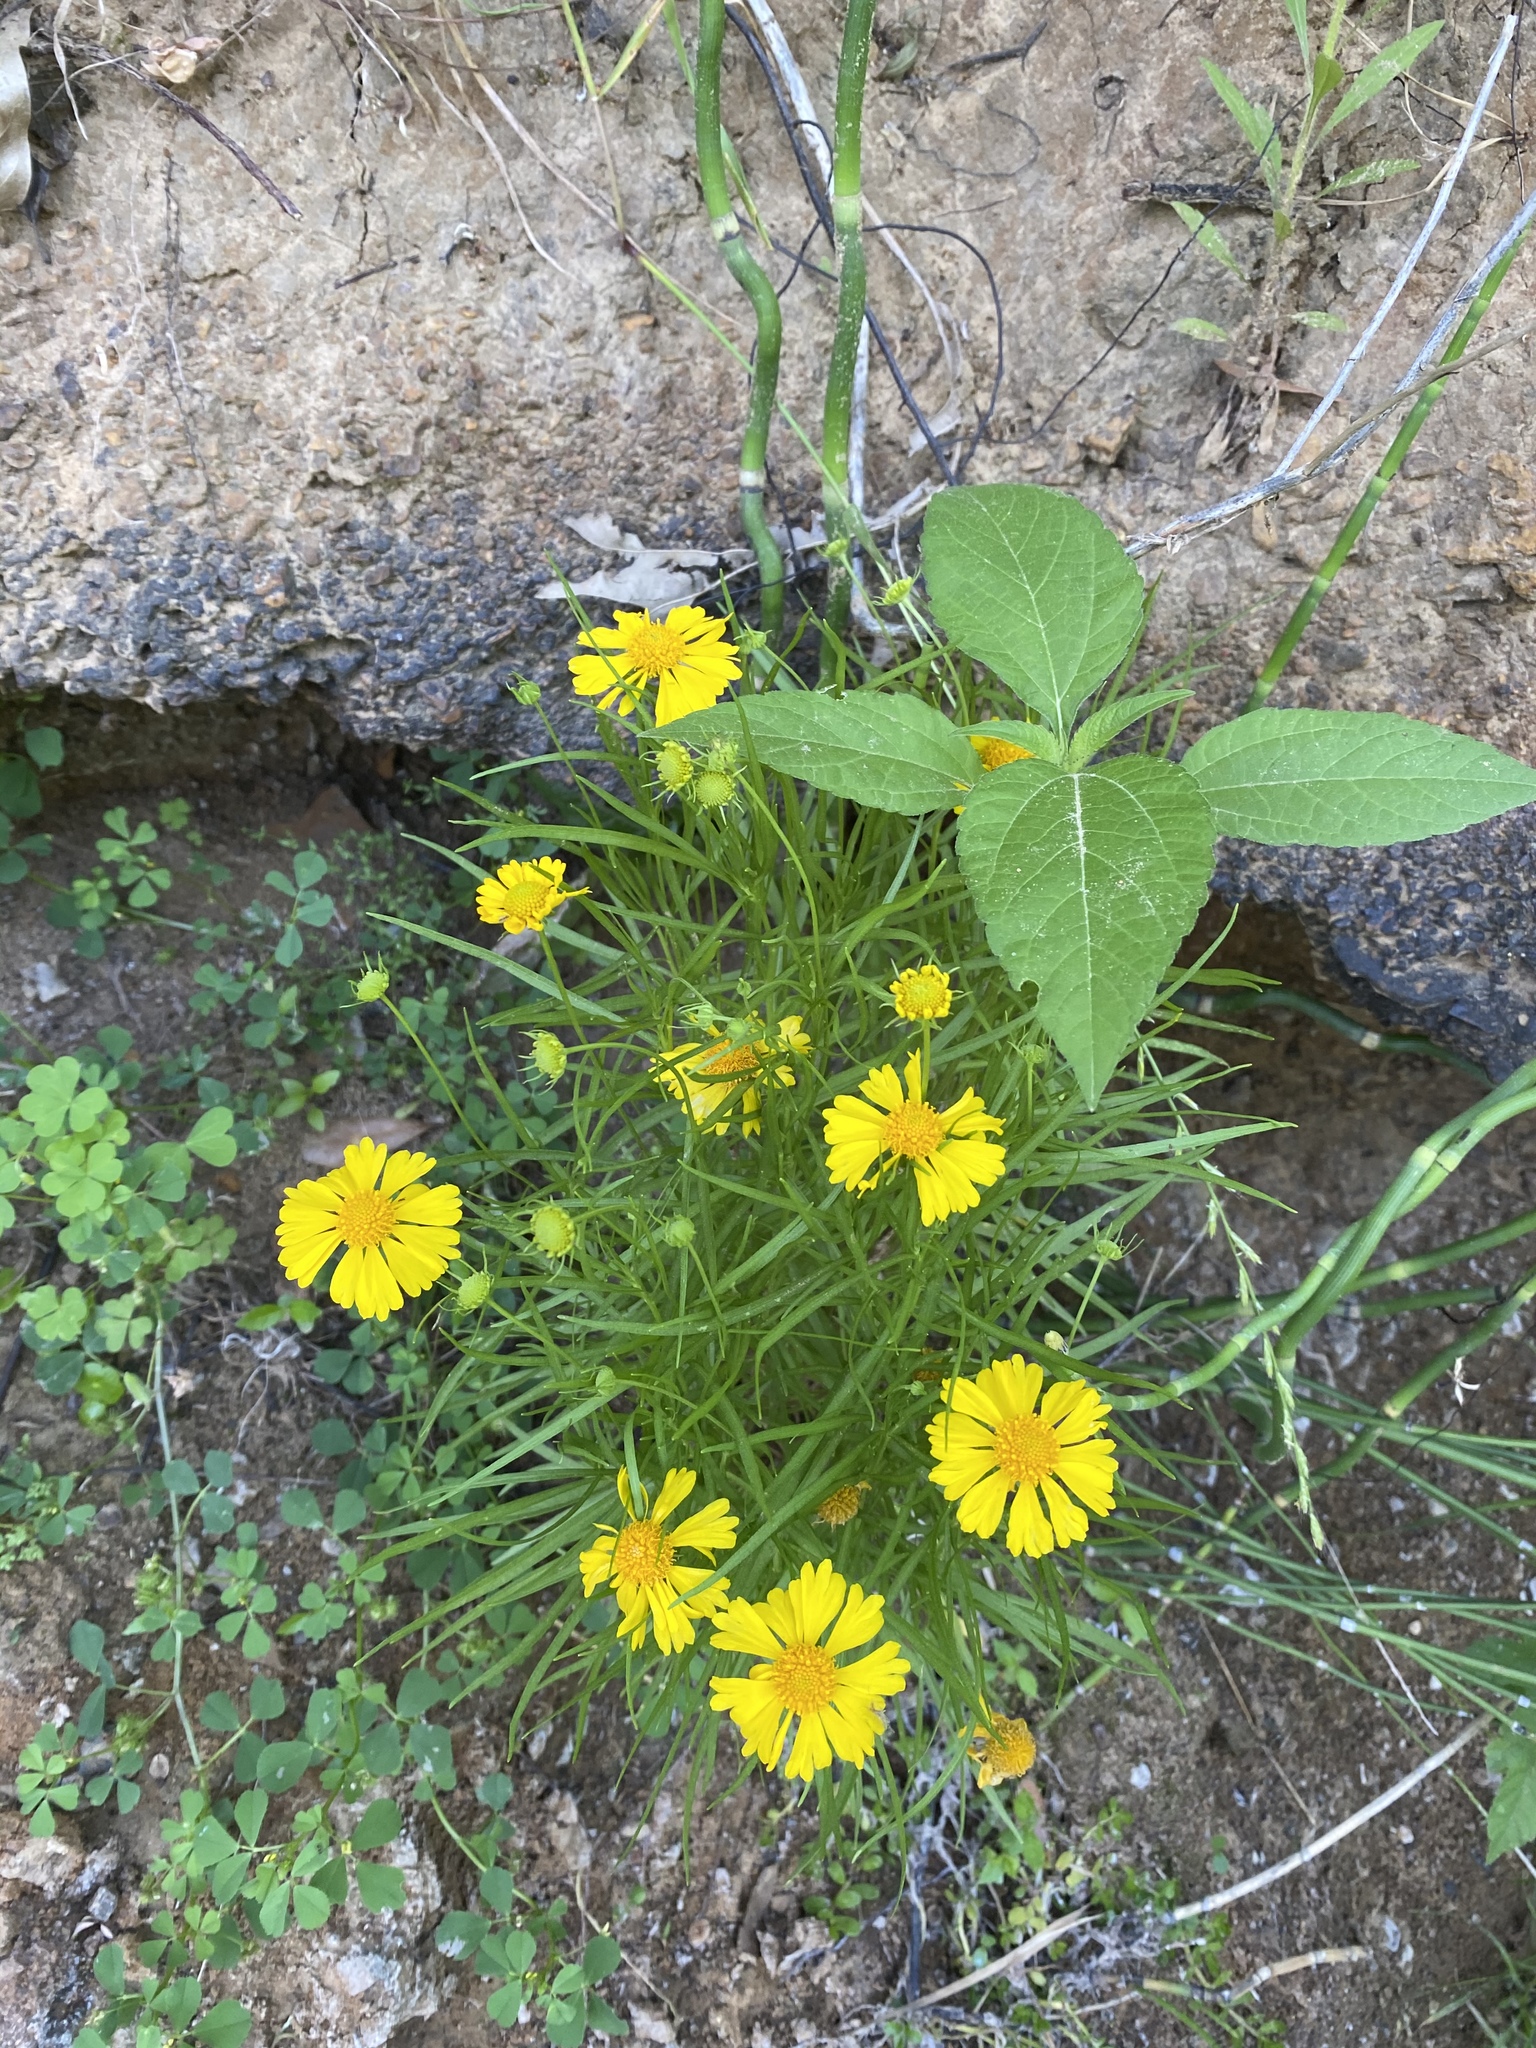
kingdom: Plantae
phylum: Tracheophyta
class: Magnoliopsida
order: Asterales
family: Asteraceae
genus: Helenium
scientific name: Helenium amarum
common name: Bitter sneezeweed
